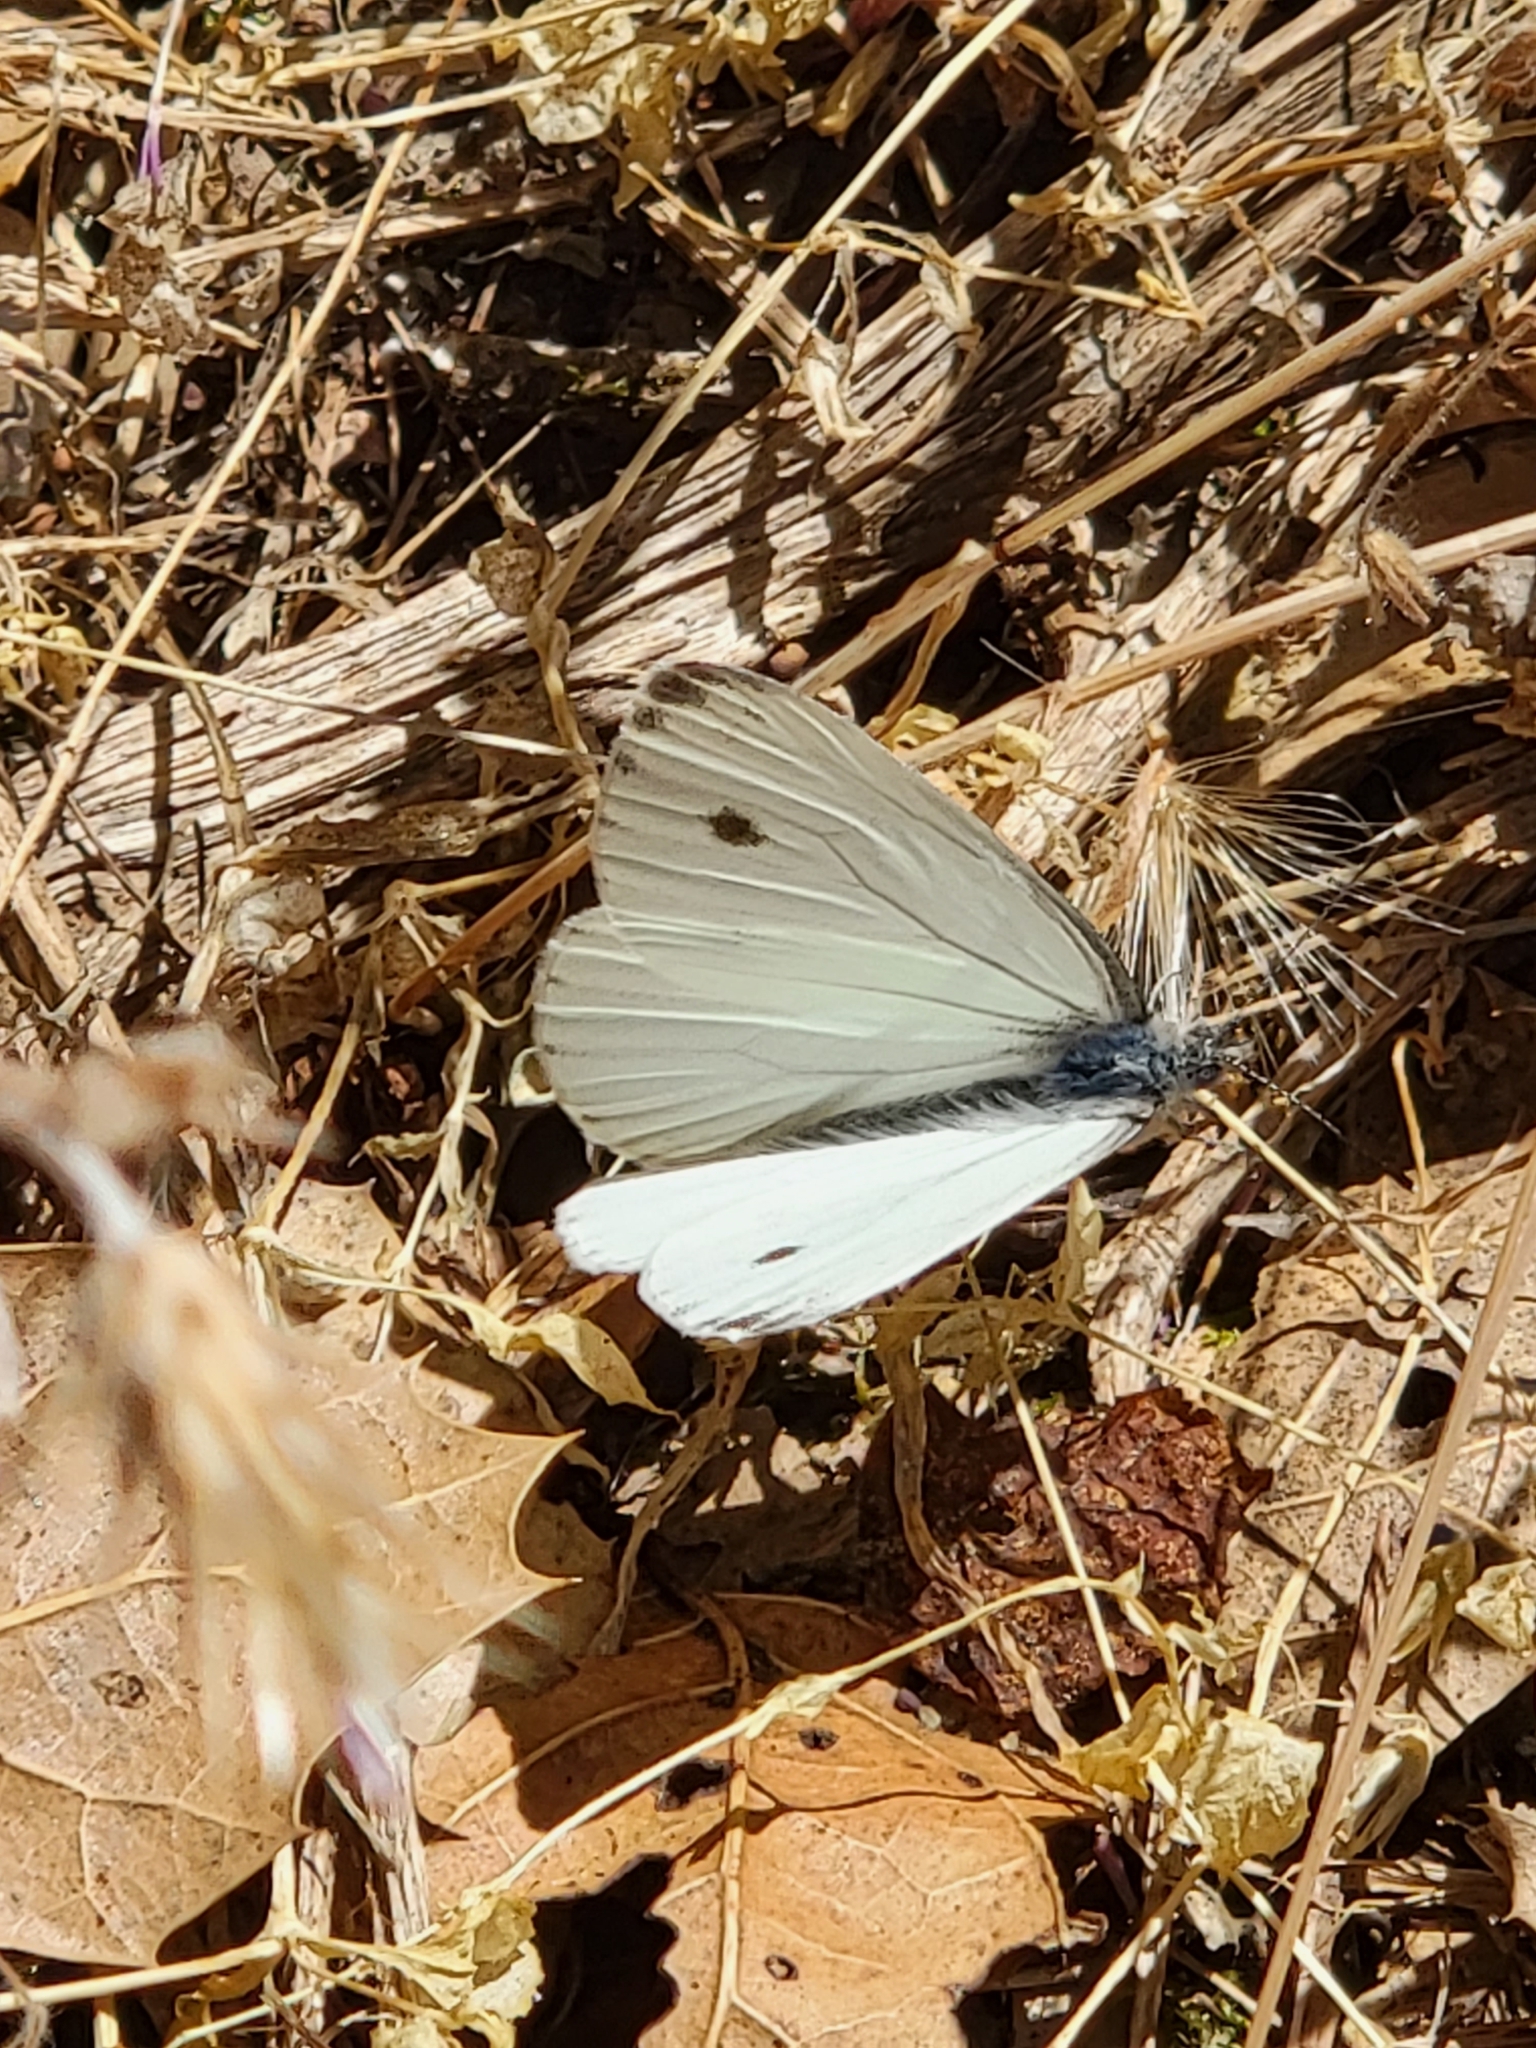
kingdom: Animalia
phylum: Arthropoda
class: Insecta
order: Lepidoptera
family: Pieridae
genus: Pieris
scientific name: Pieris rapae
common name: Small white
